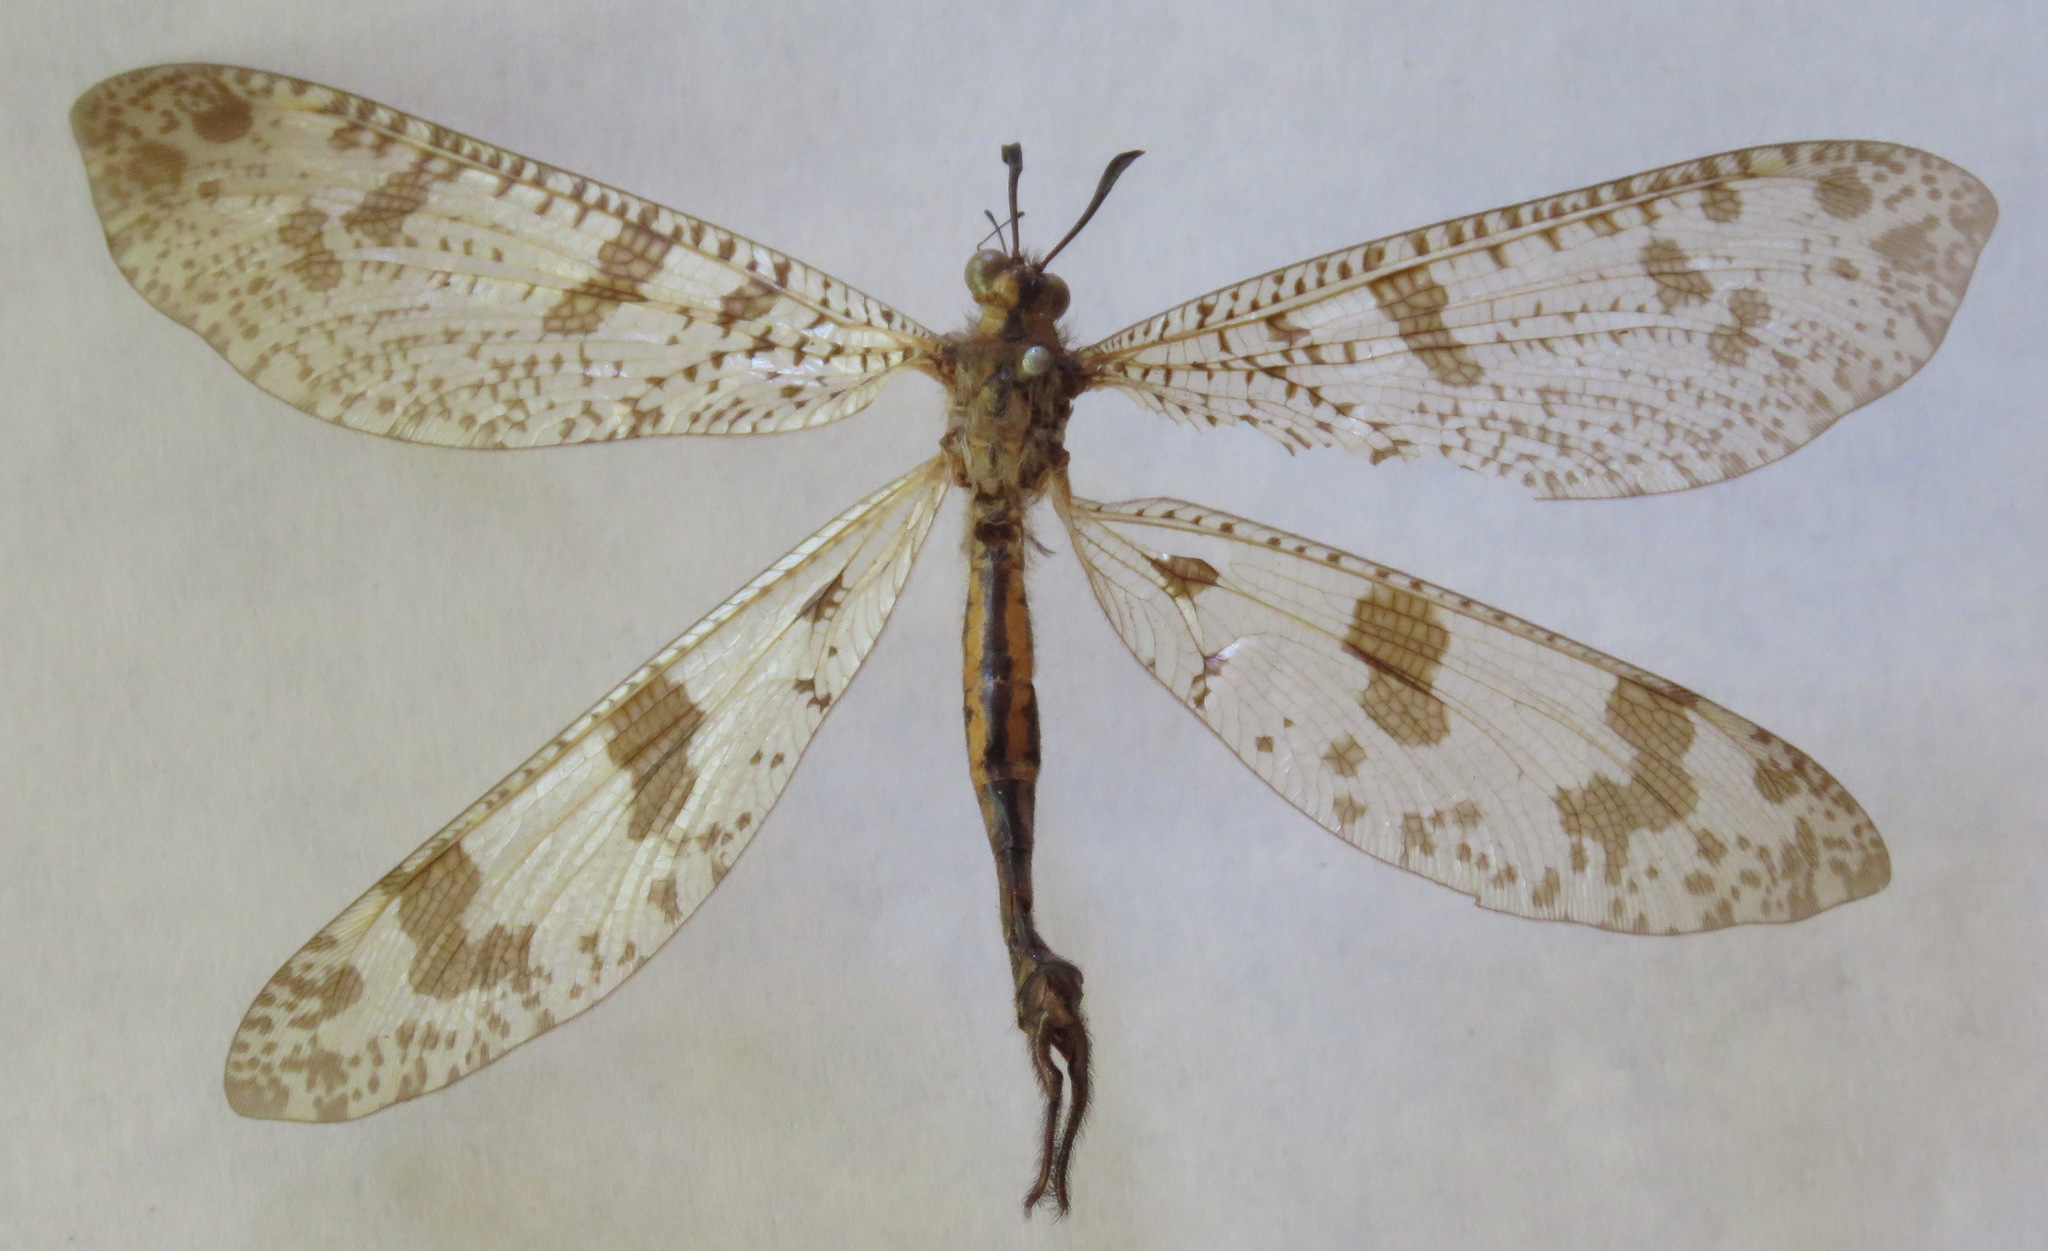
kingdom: Animalia
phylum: Arthropoda
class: Insecta
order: Neuroptera
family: Myrmeleontidae
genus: Palpares
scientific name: Palpares libelluloides
